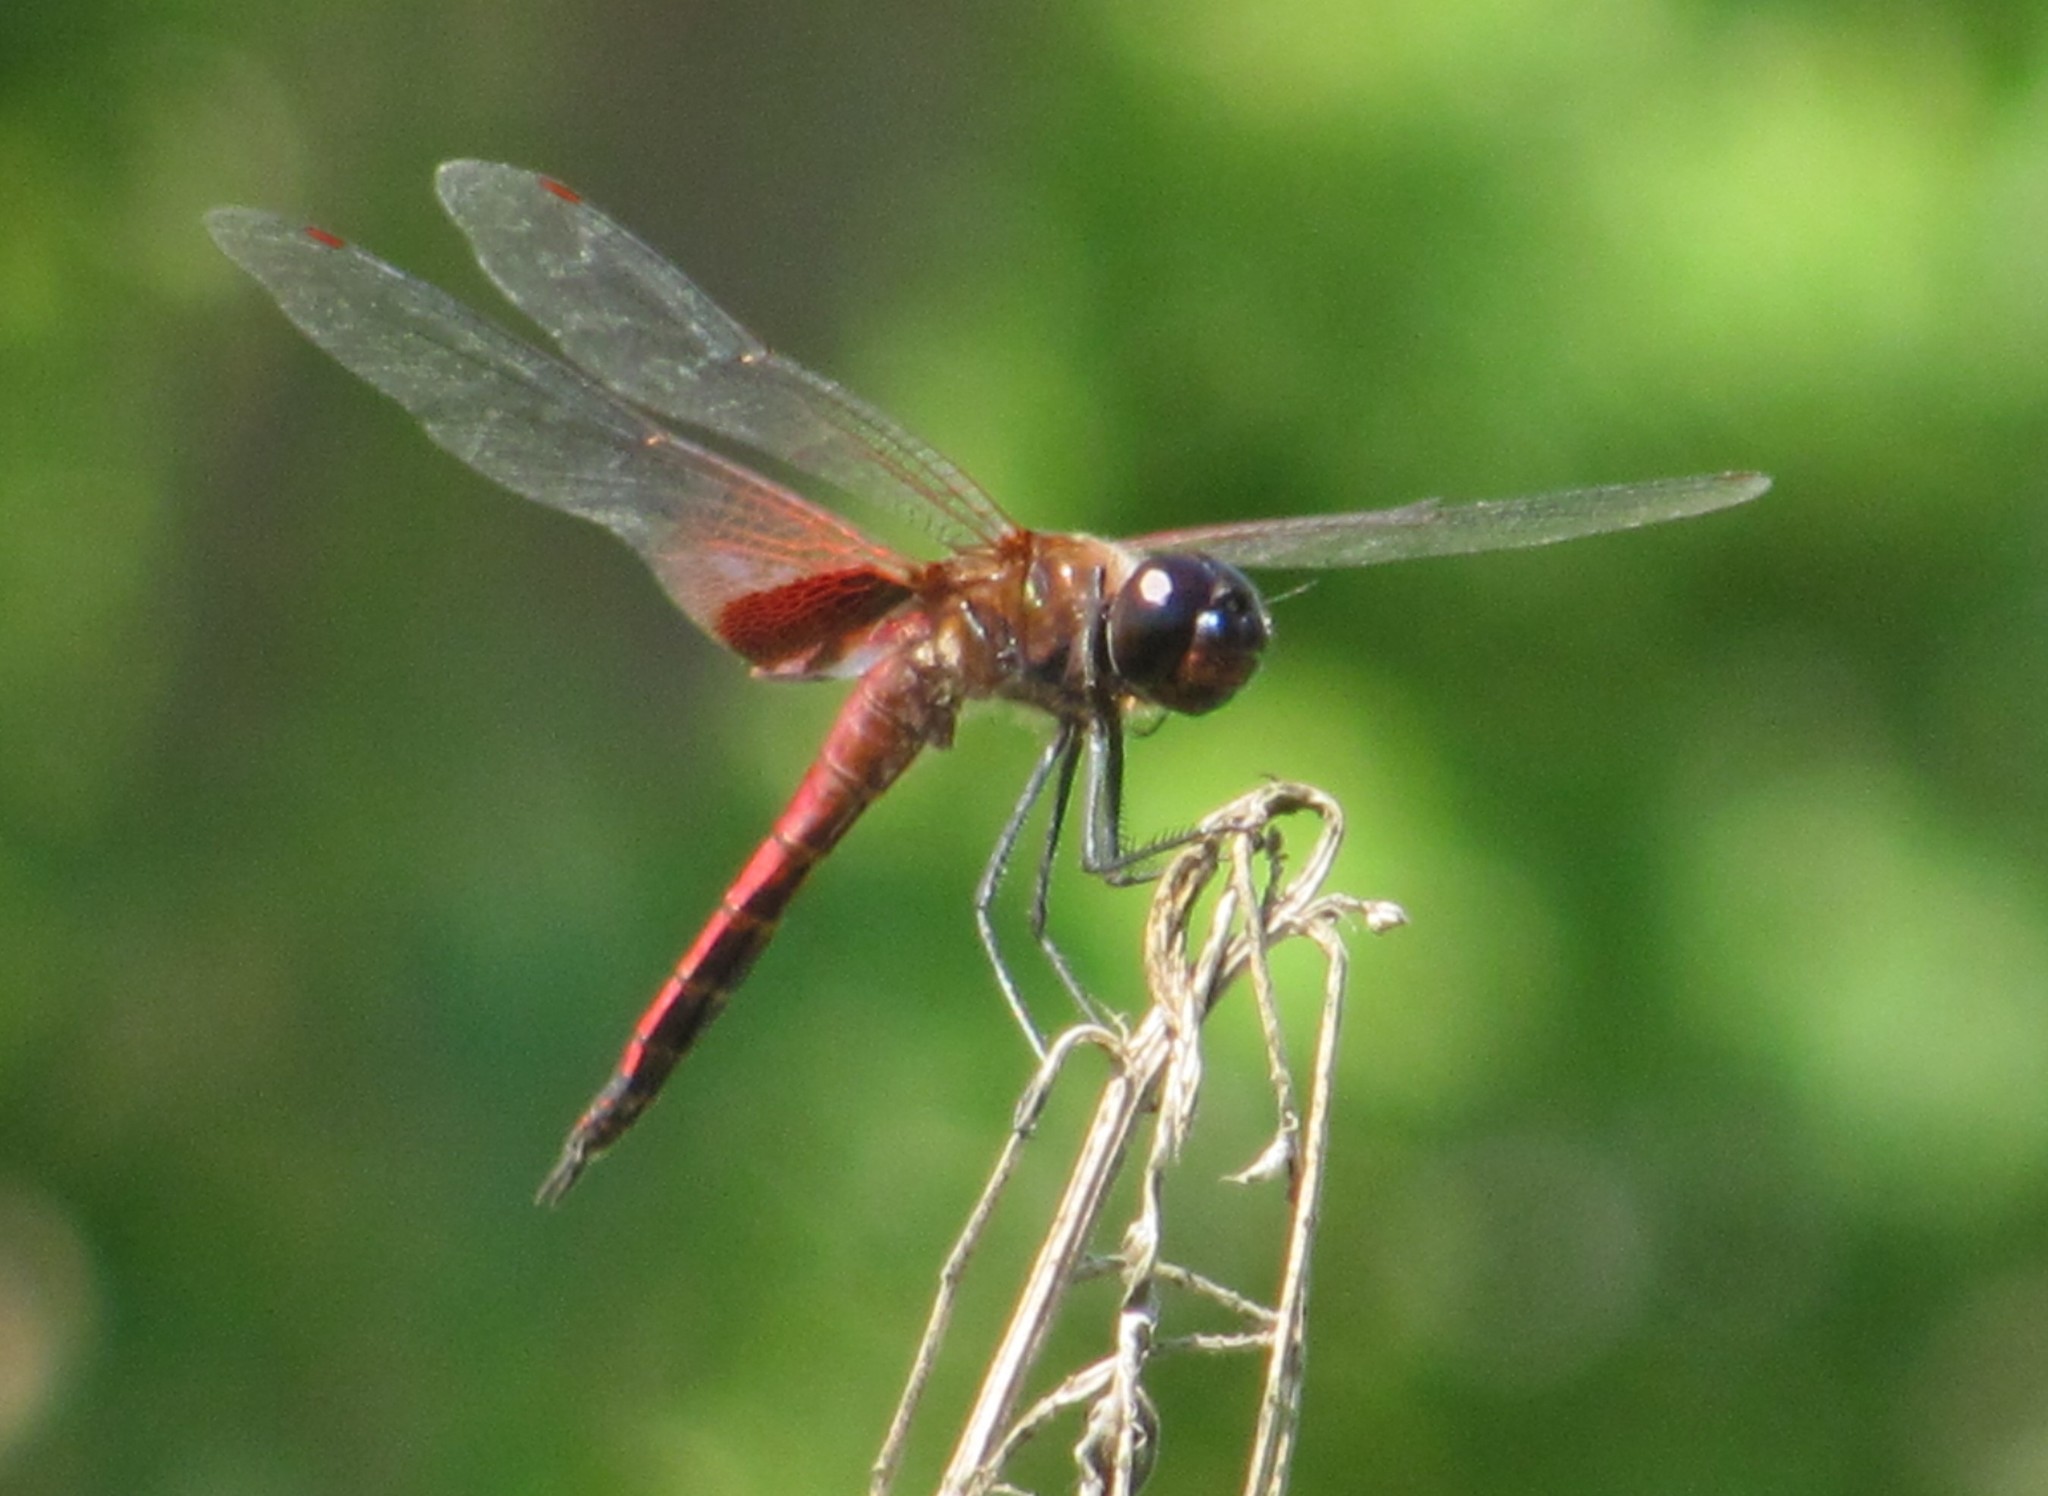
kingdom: Animalia
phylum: Arthropoda
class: Insecta
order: Odonata
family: Libellulidae
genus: Tramea
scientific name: Tramea transmarina
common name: Red glider dragonfly
